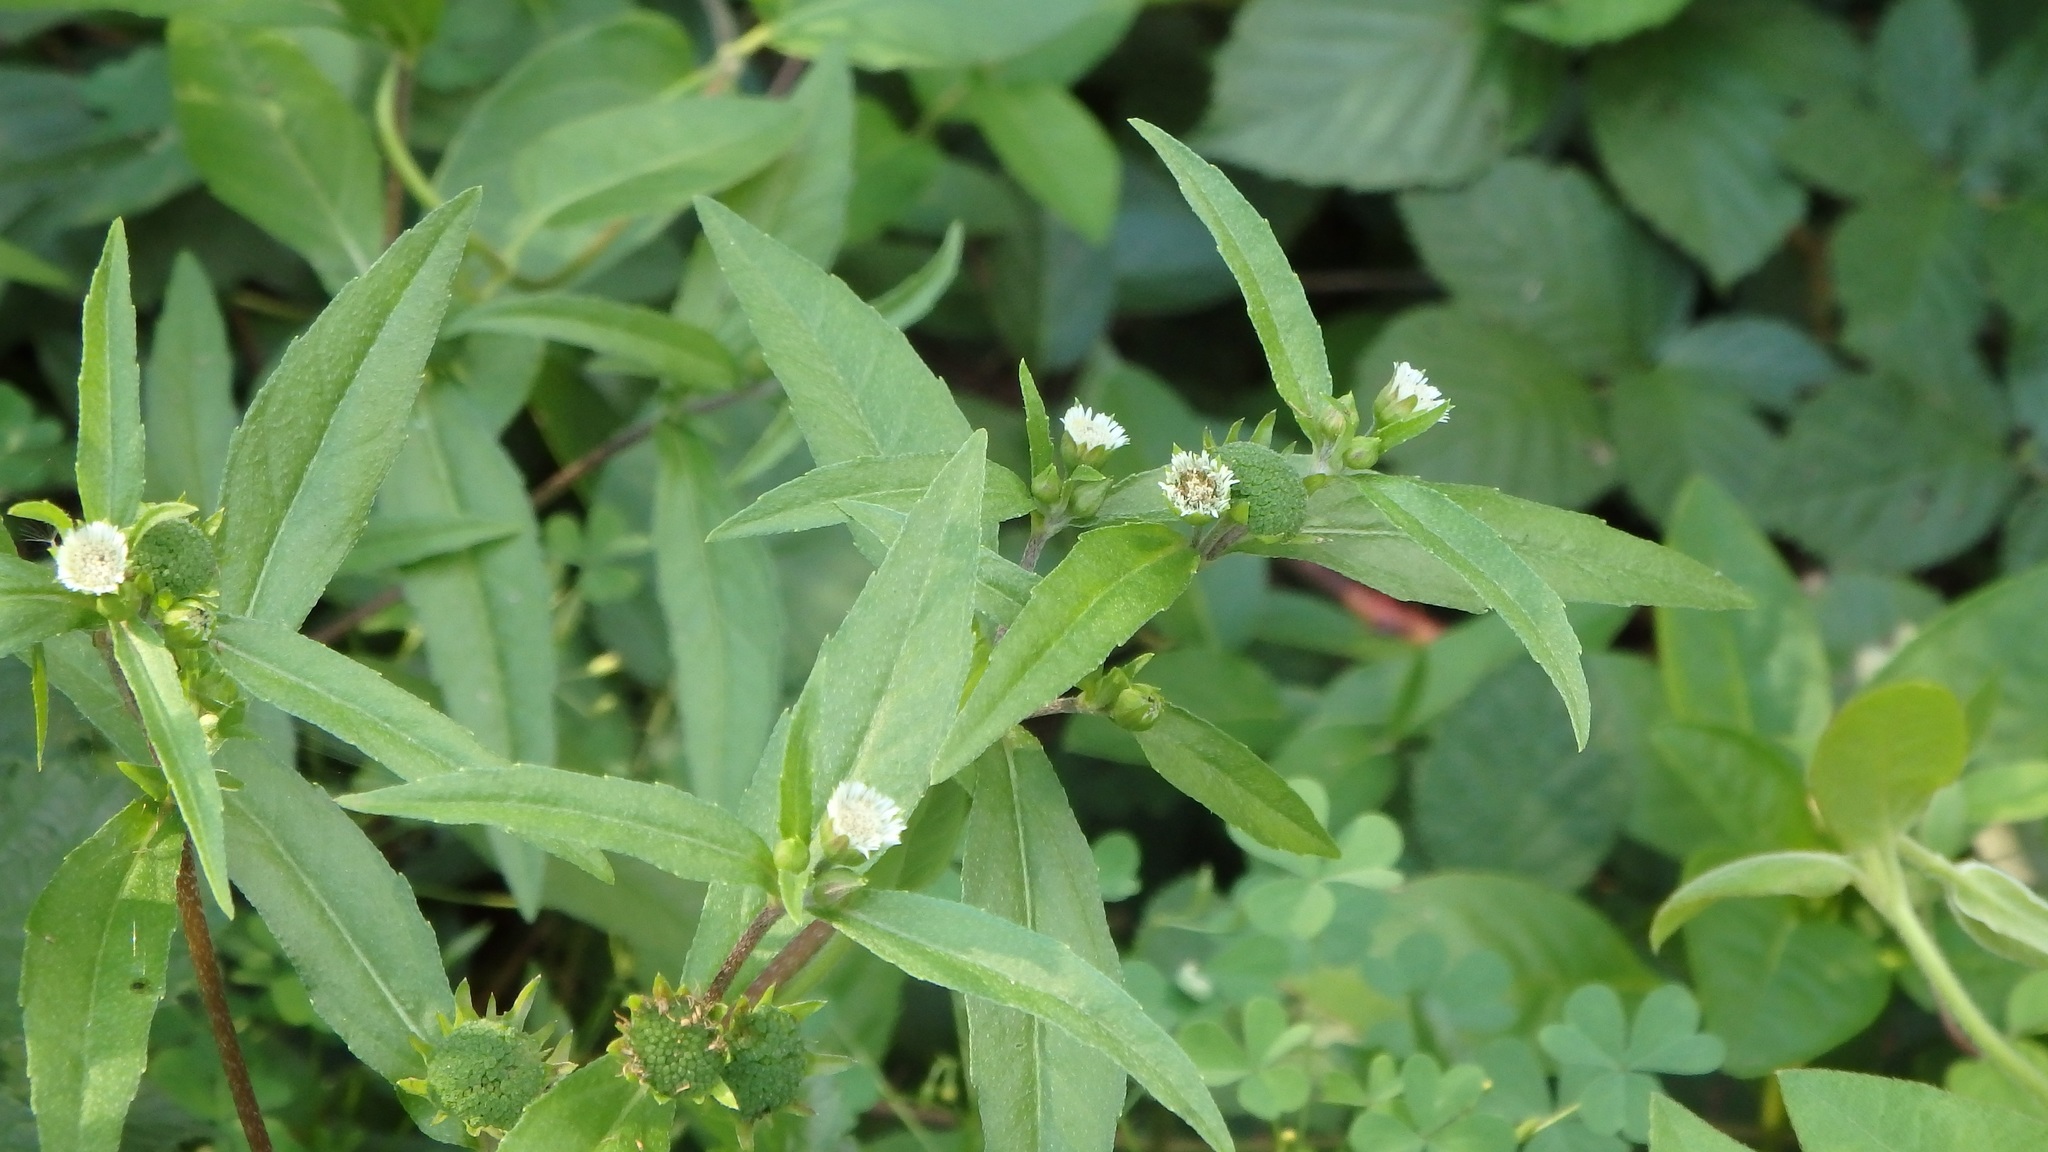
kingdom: Plantae
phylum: Tracheophyta
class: Magnoliopsida
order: Asterales
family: Asteraceae
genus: Eclipta
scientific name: Eclipta prostrata
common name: False daisy
